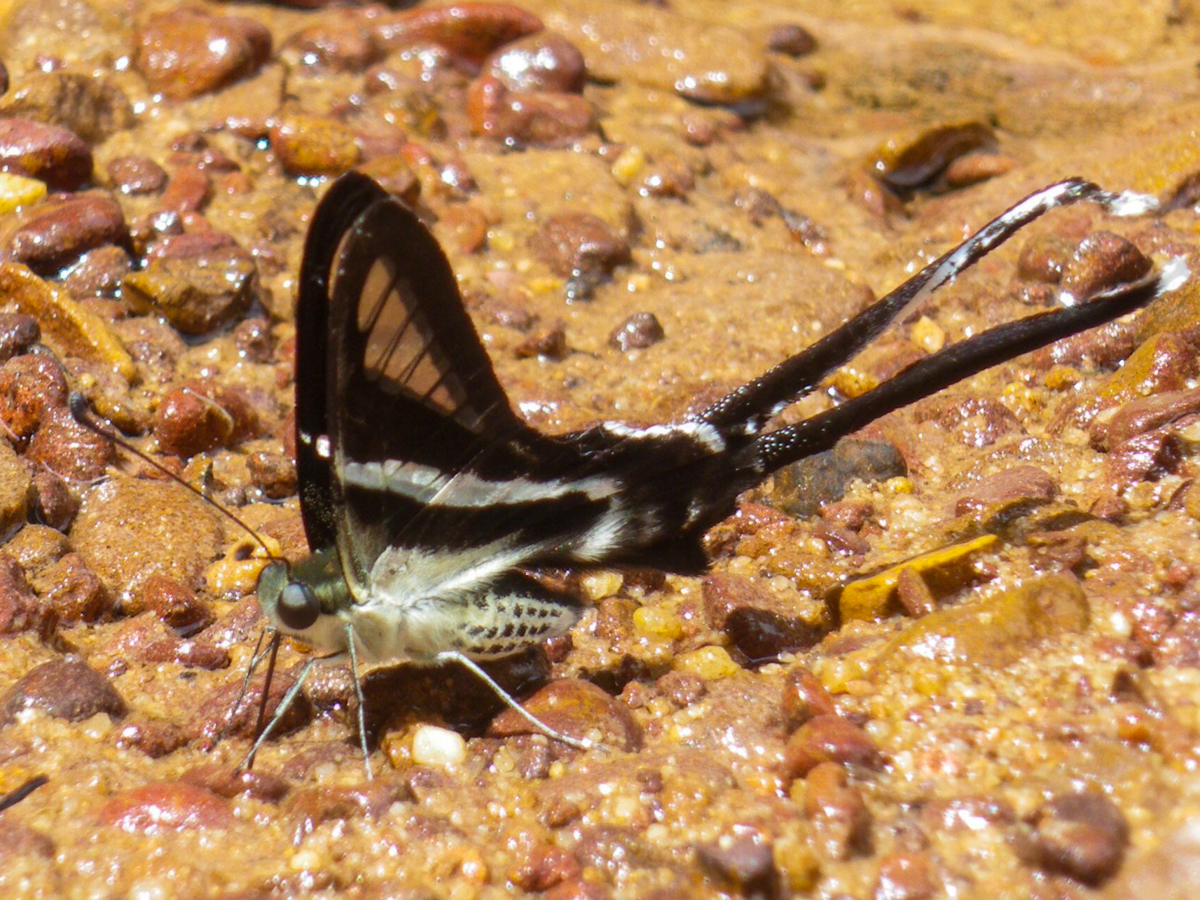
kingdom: Animalia
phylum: Arthropoda
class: Insecta
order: Lepidoptera
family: Papilionidae
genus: Lamproptera
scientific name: Lamproptera curius
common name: White dragontail
